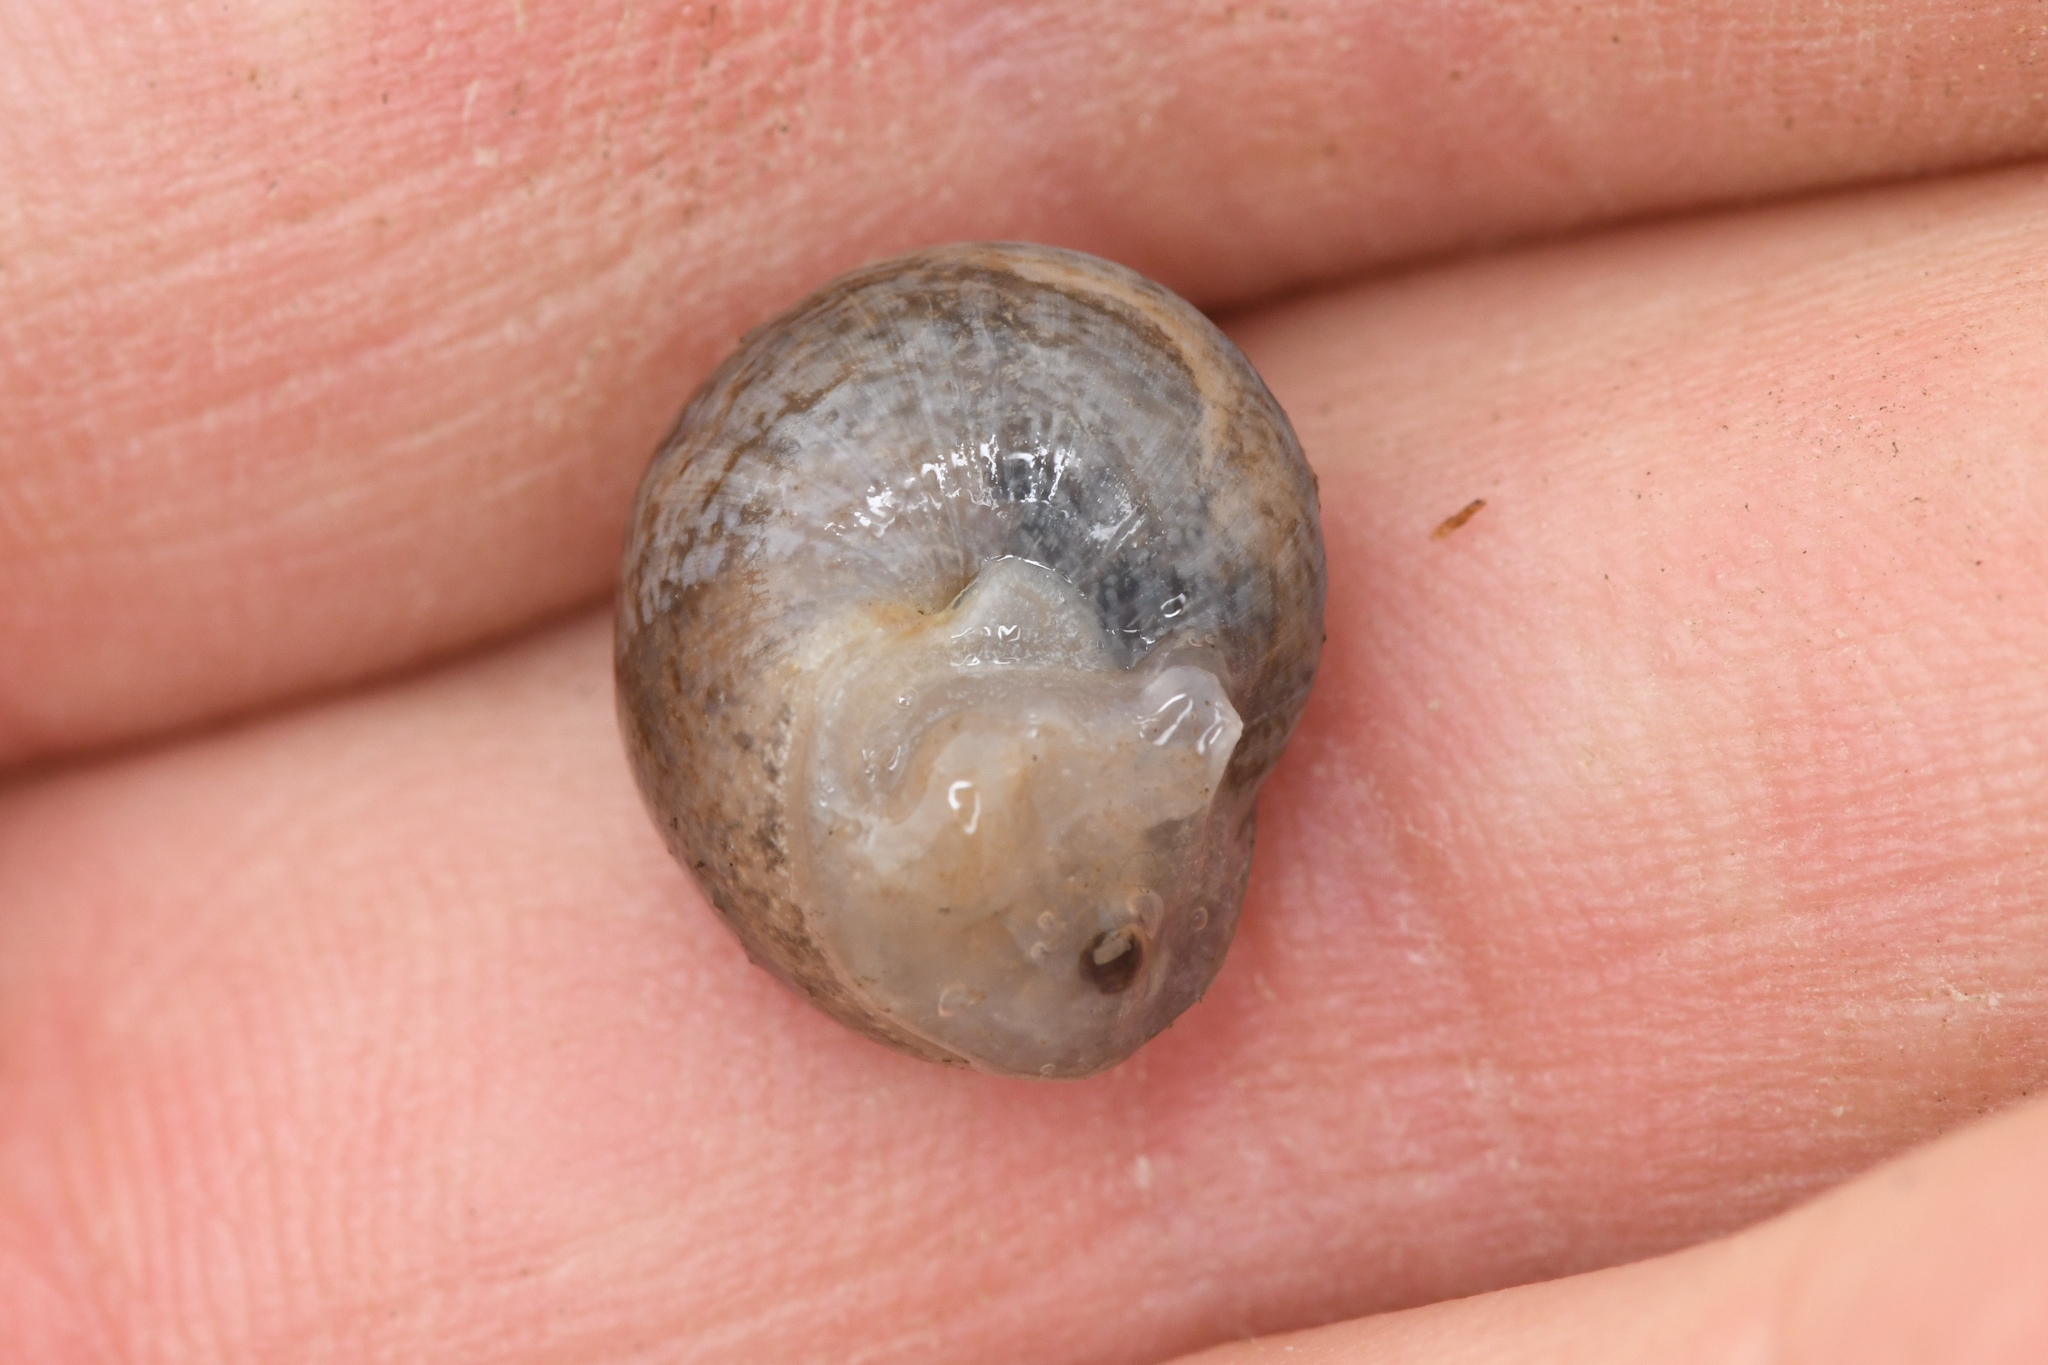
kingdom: Animalia
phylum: Mollusca
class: Gastropoda
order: Stylommatophora
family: Xanthonychidae
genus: Xerarionta
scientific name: Xerarionta kellettii
